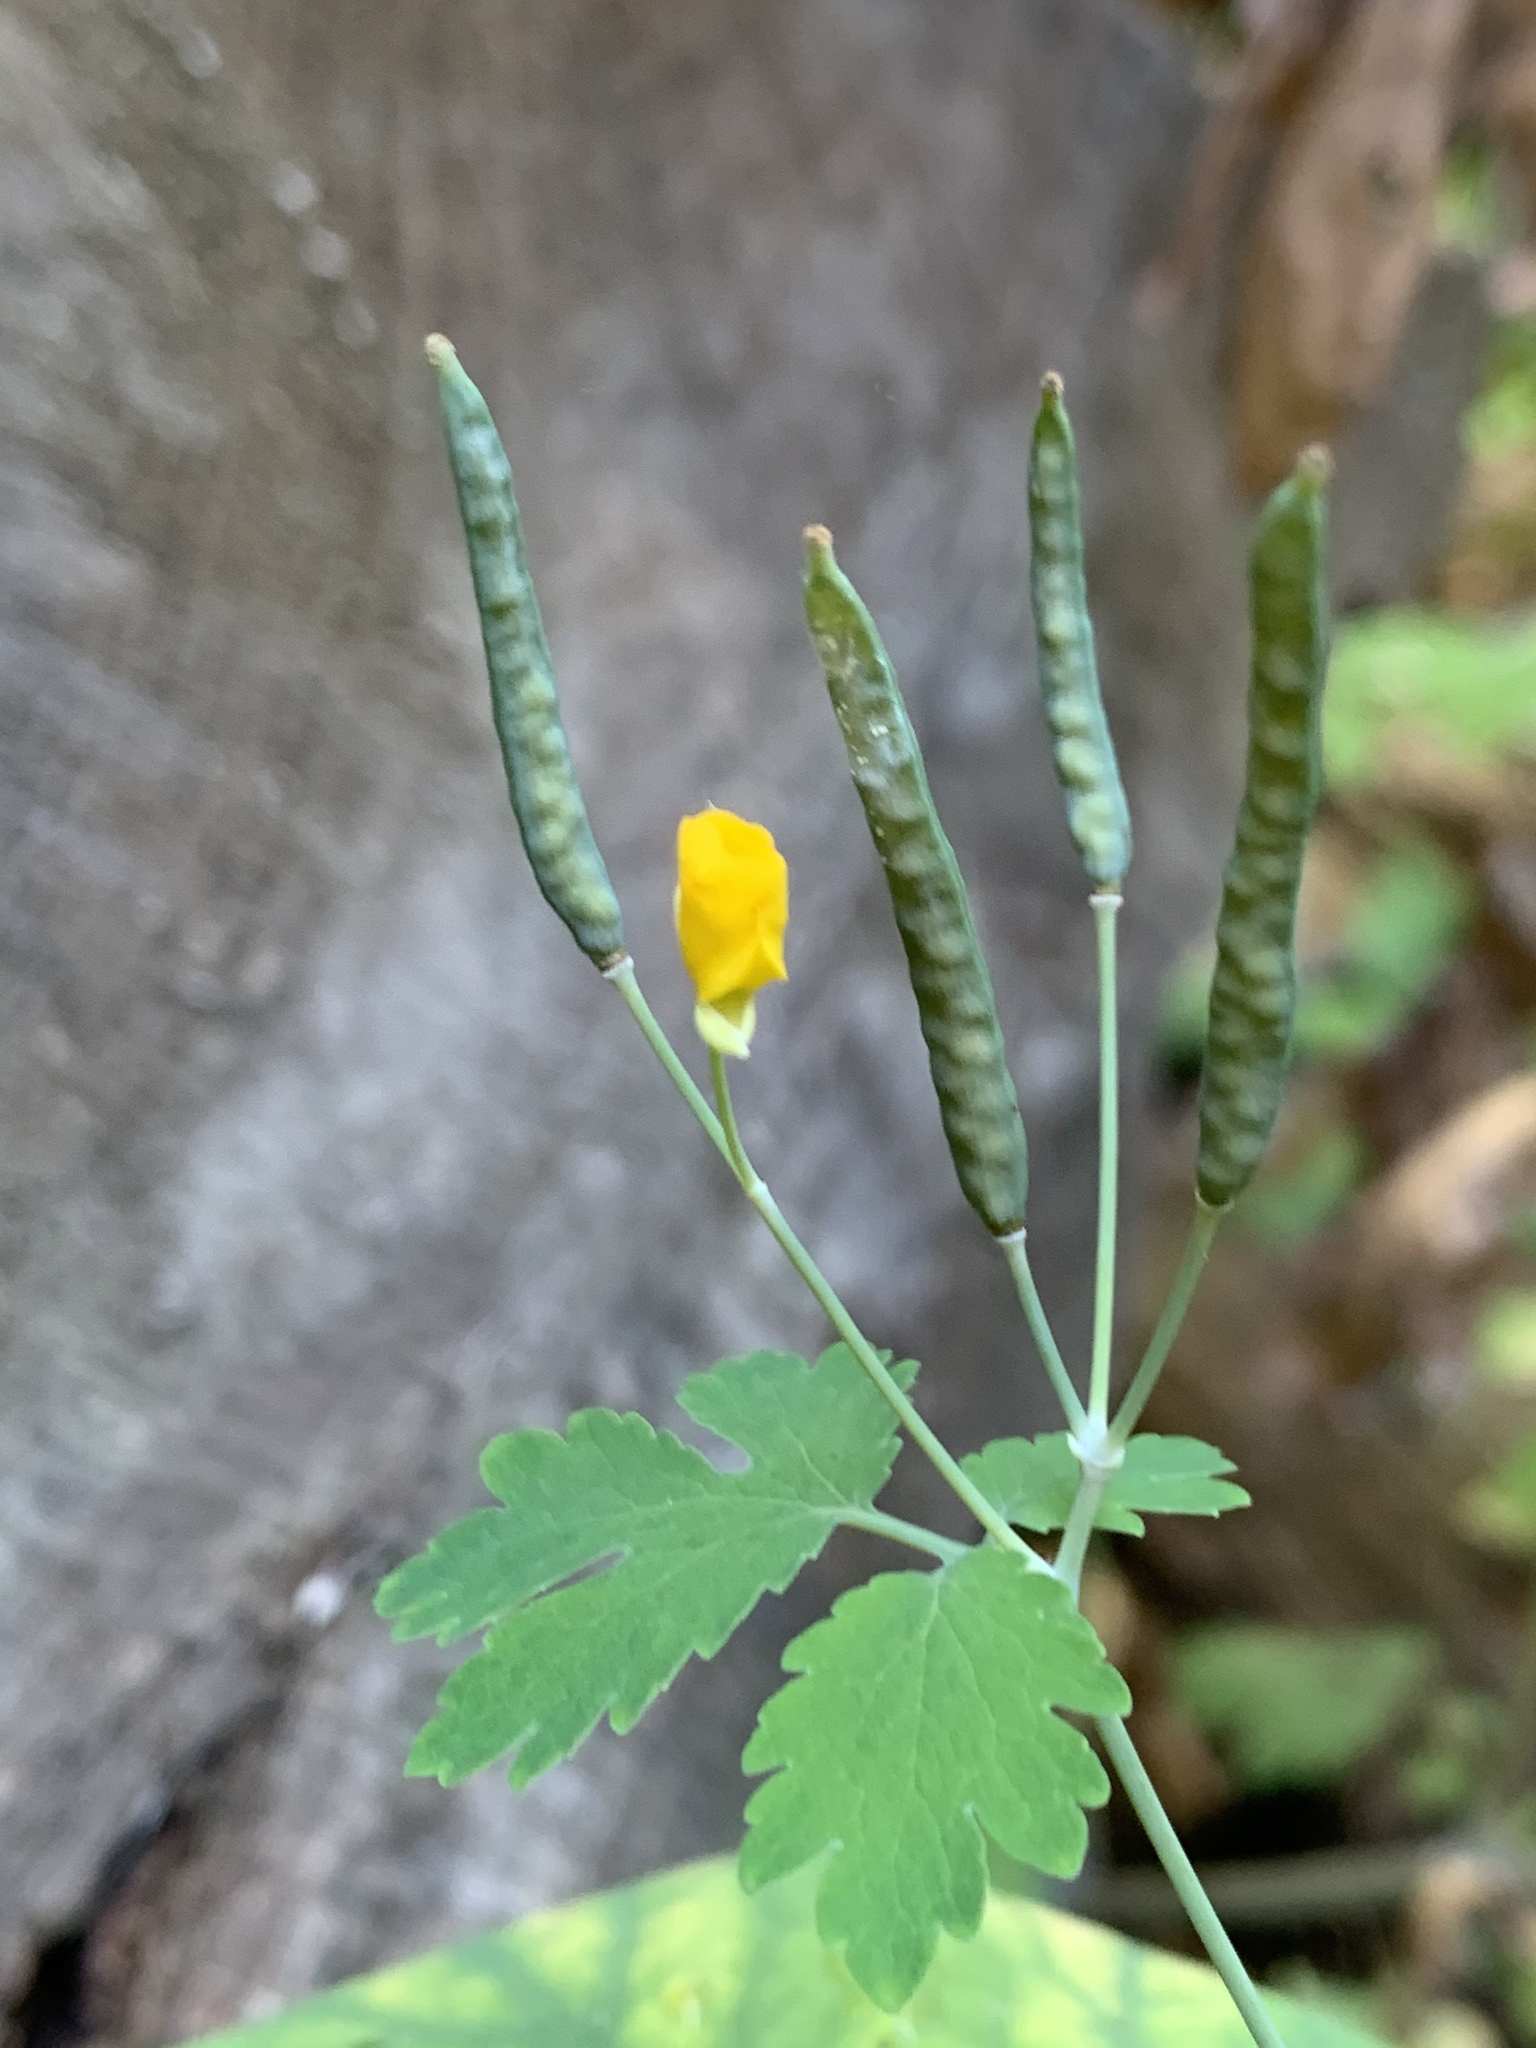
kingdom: Plantae
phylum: Tracheophyta
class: Magnoliopsida
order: Ranunculales
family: Papaveraceae
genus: Chelidonium
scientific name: Chelidonium majus
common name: Greater celandine
